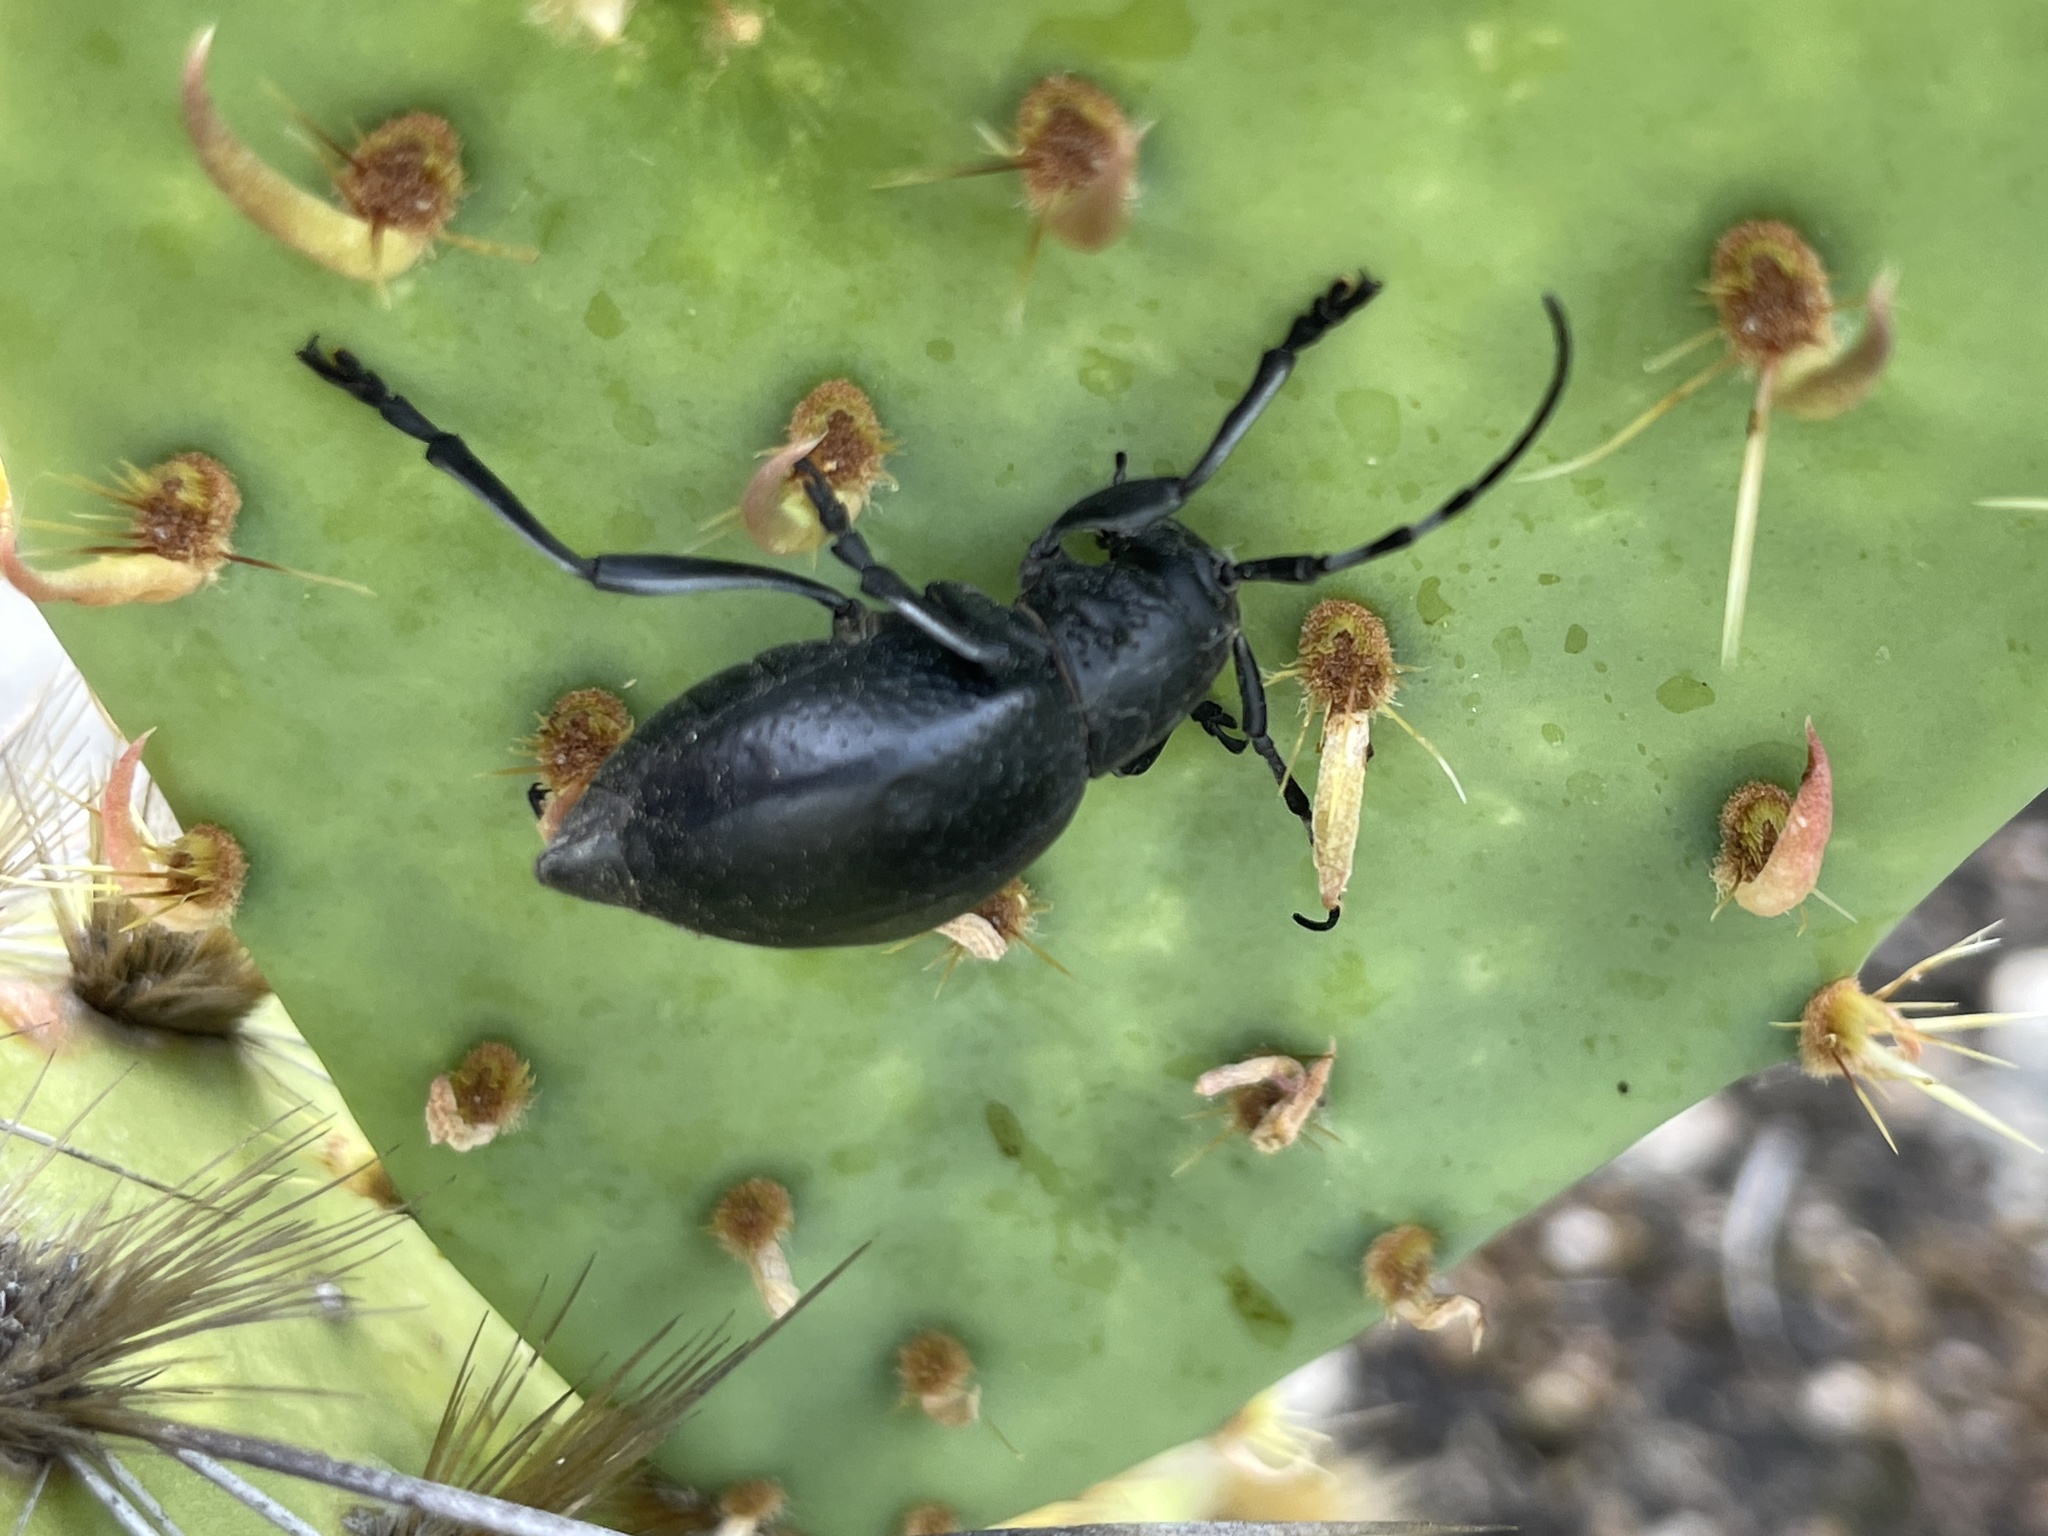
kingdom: Animalia
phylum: Arthropoda
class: Insecta
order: Coleoptera
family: Cerambycidae
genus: Moneilema
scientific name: Moneilema armatum
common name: Long-horned beetle
